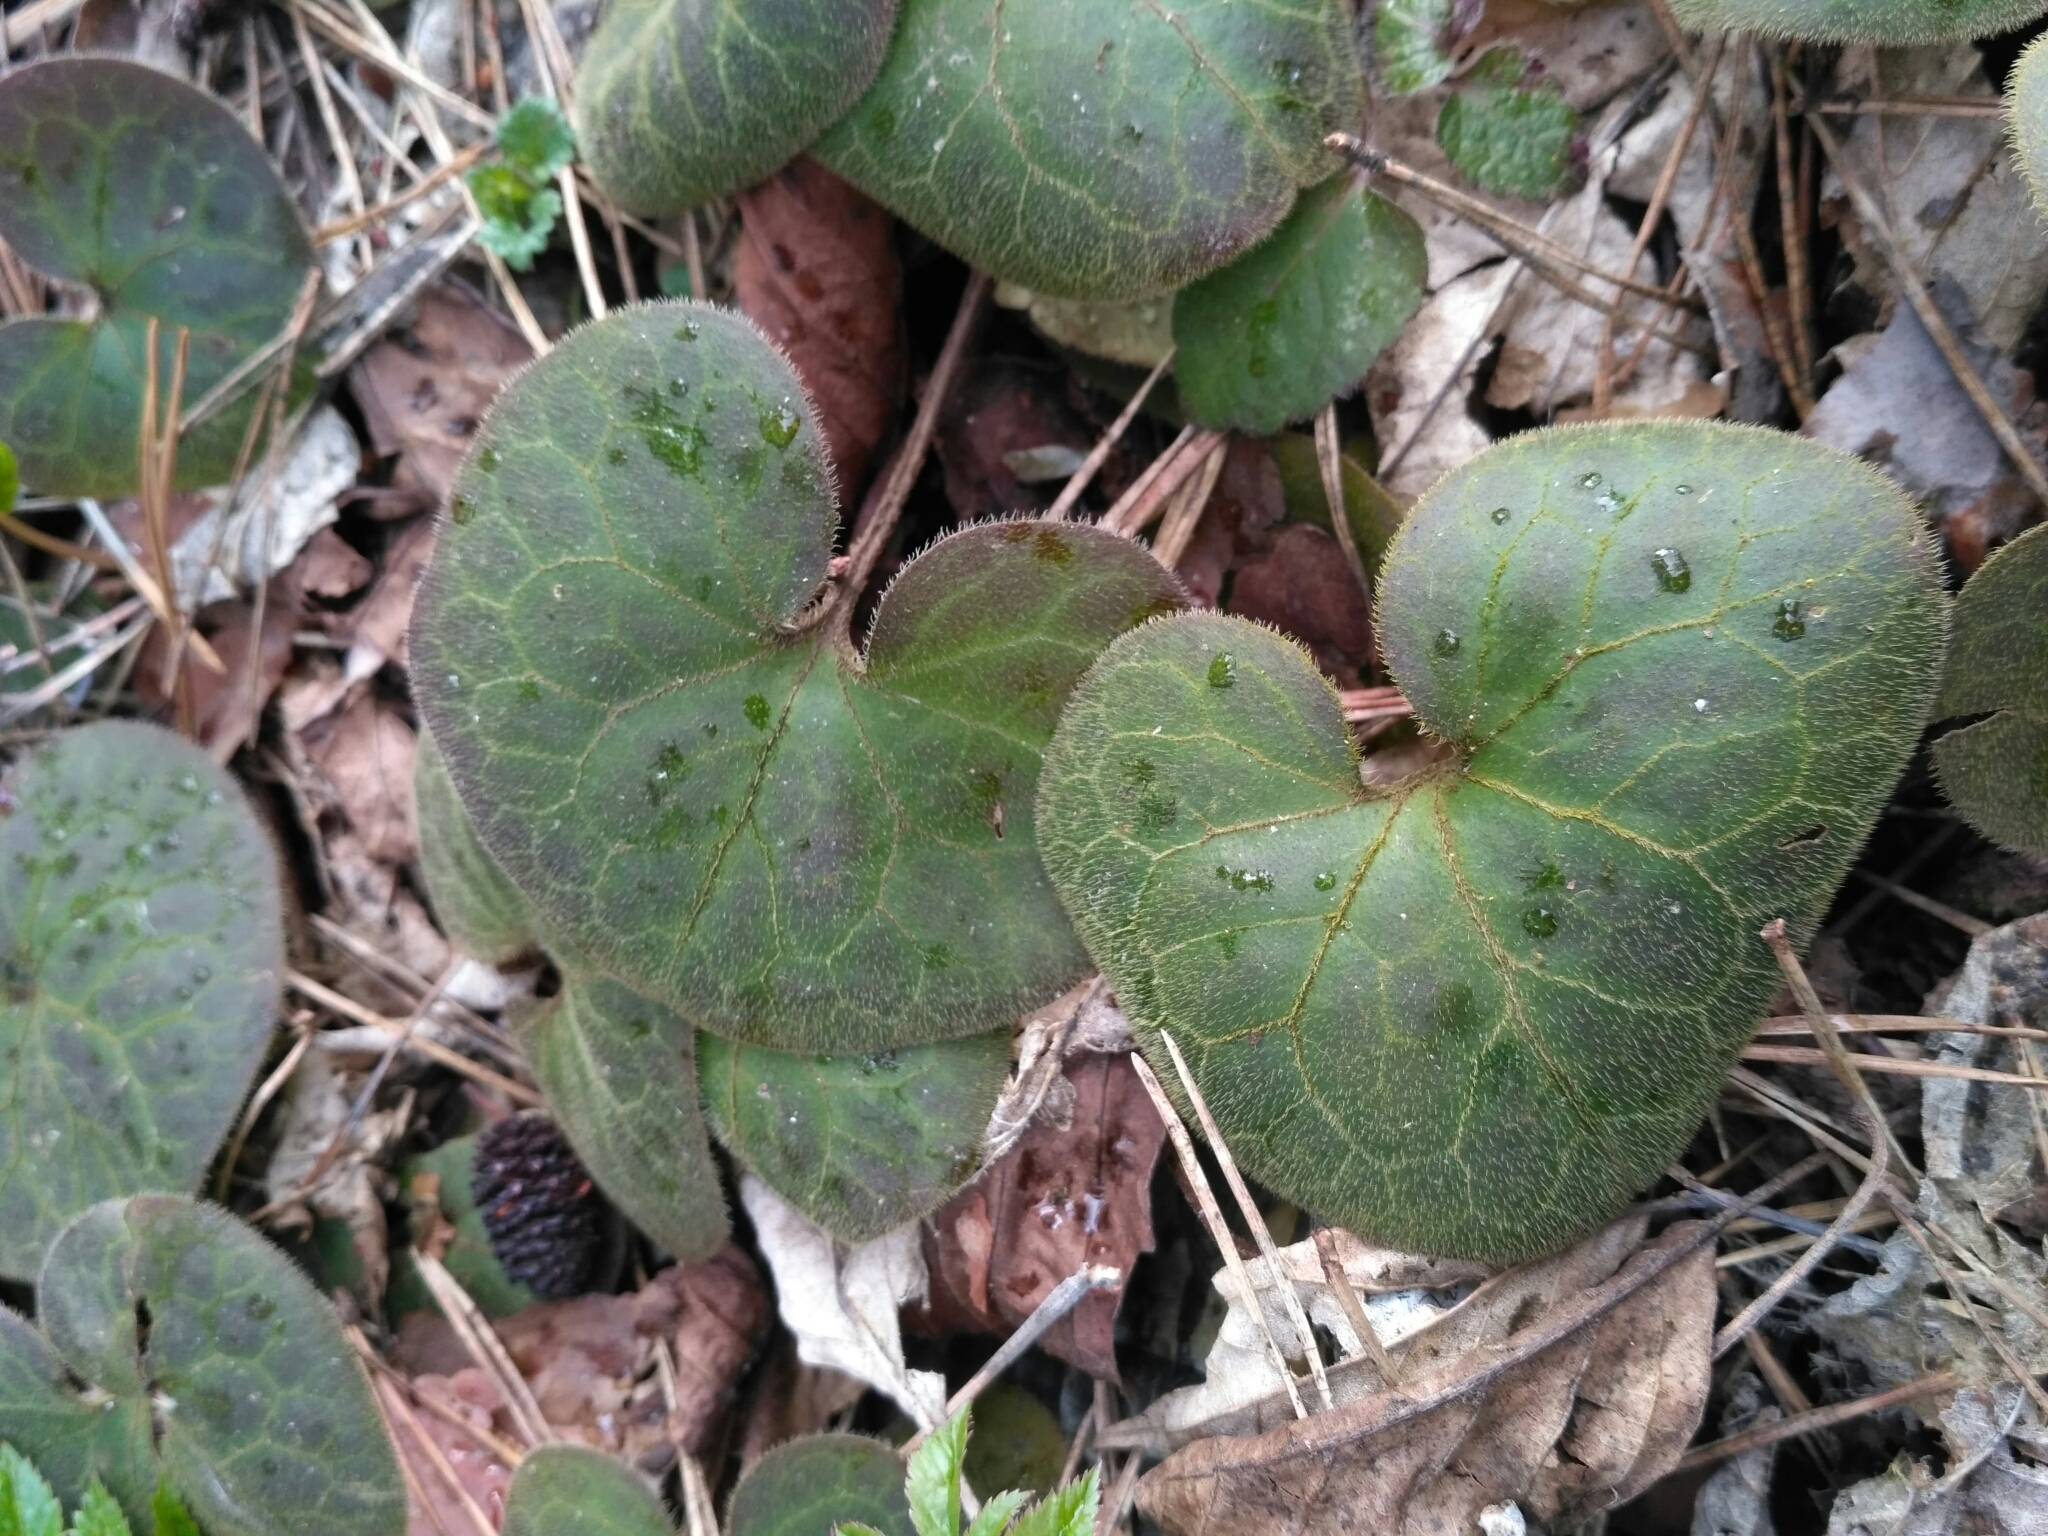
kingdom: Plantae
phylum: Tracheophyta
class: Magnoliopsida
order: Piperales
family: Aristolochiaceae
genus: Asarum
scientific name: Asarum europaeum
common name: Asarabacca
